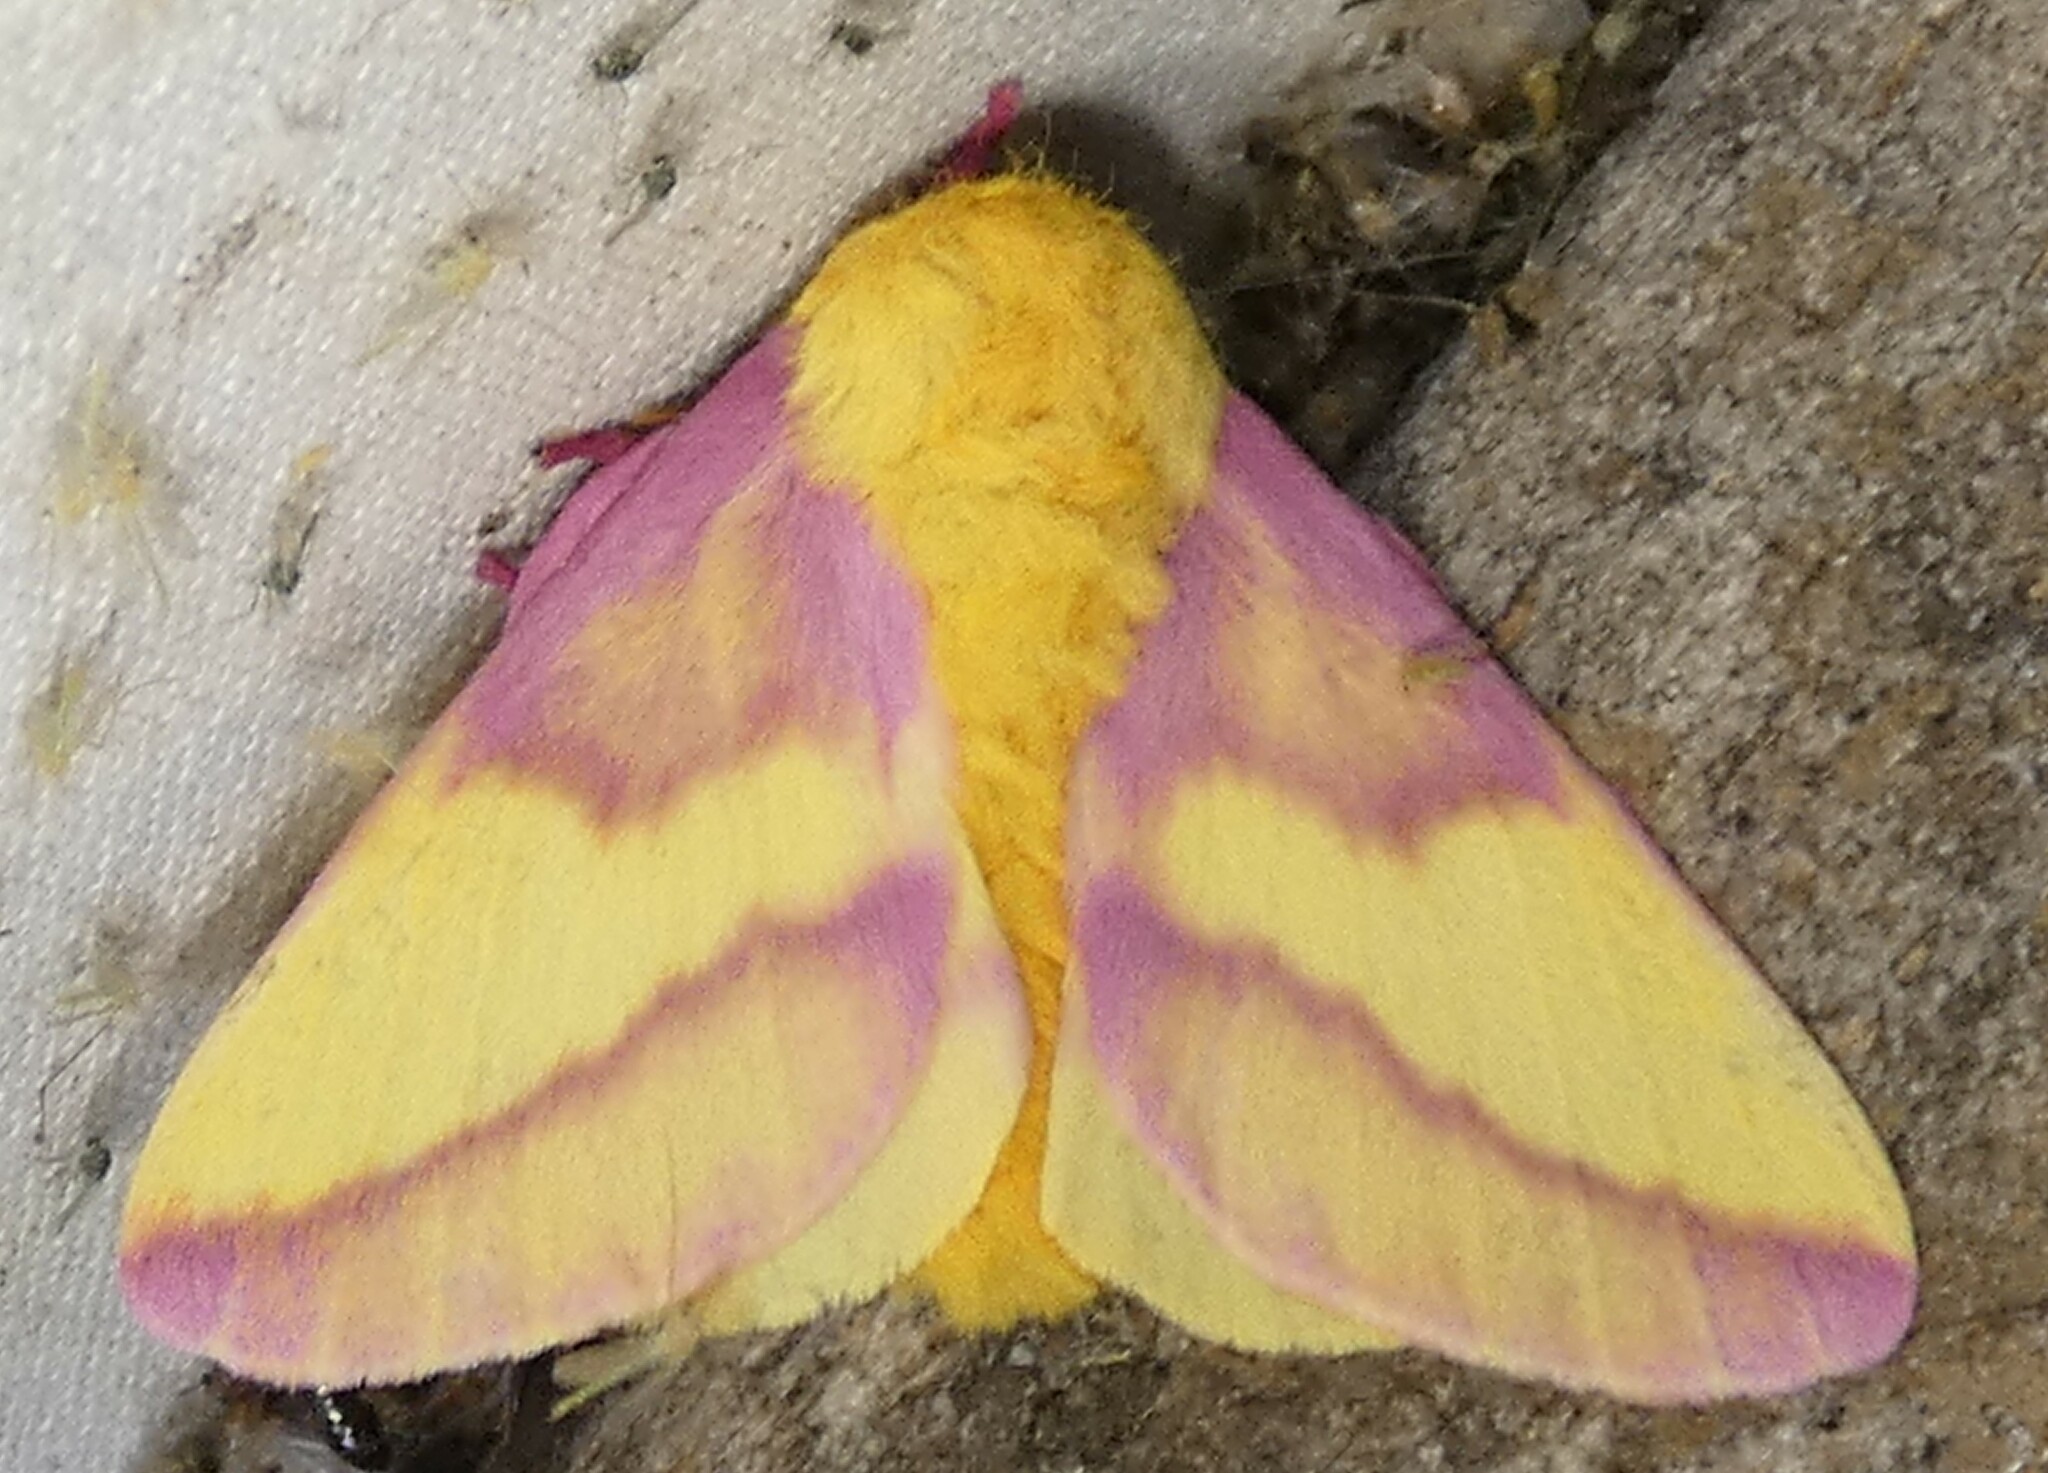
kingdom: Animalia
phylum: Arthropoda
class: Insecta
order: Lepidoptera
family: Saturniidae
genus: Dryocampa
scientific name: Dryocampa rubicunda
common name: Rosy maple moth
